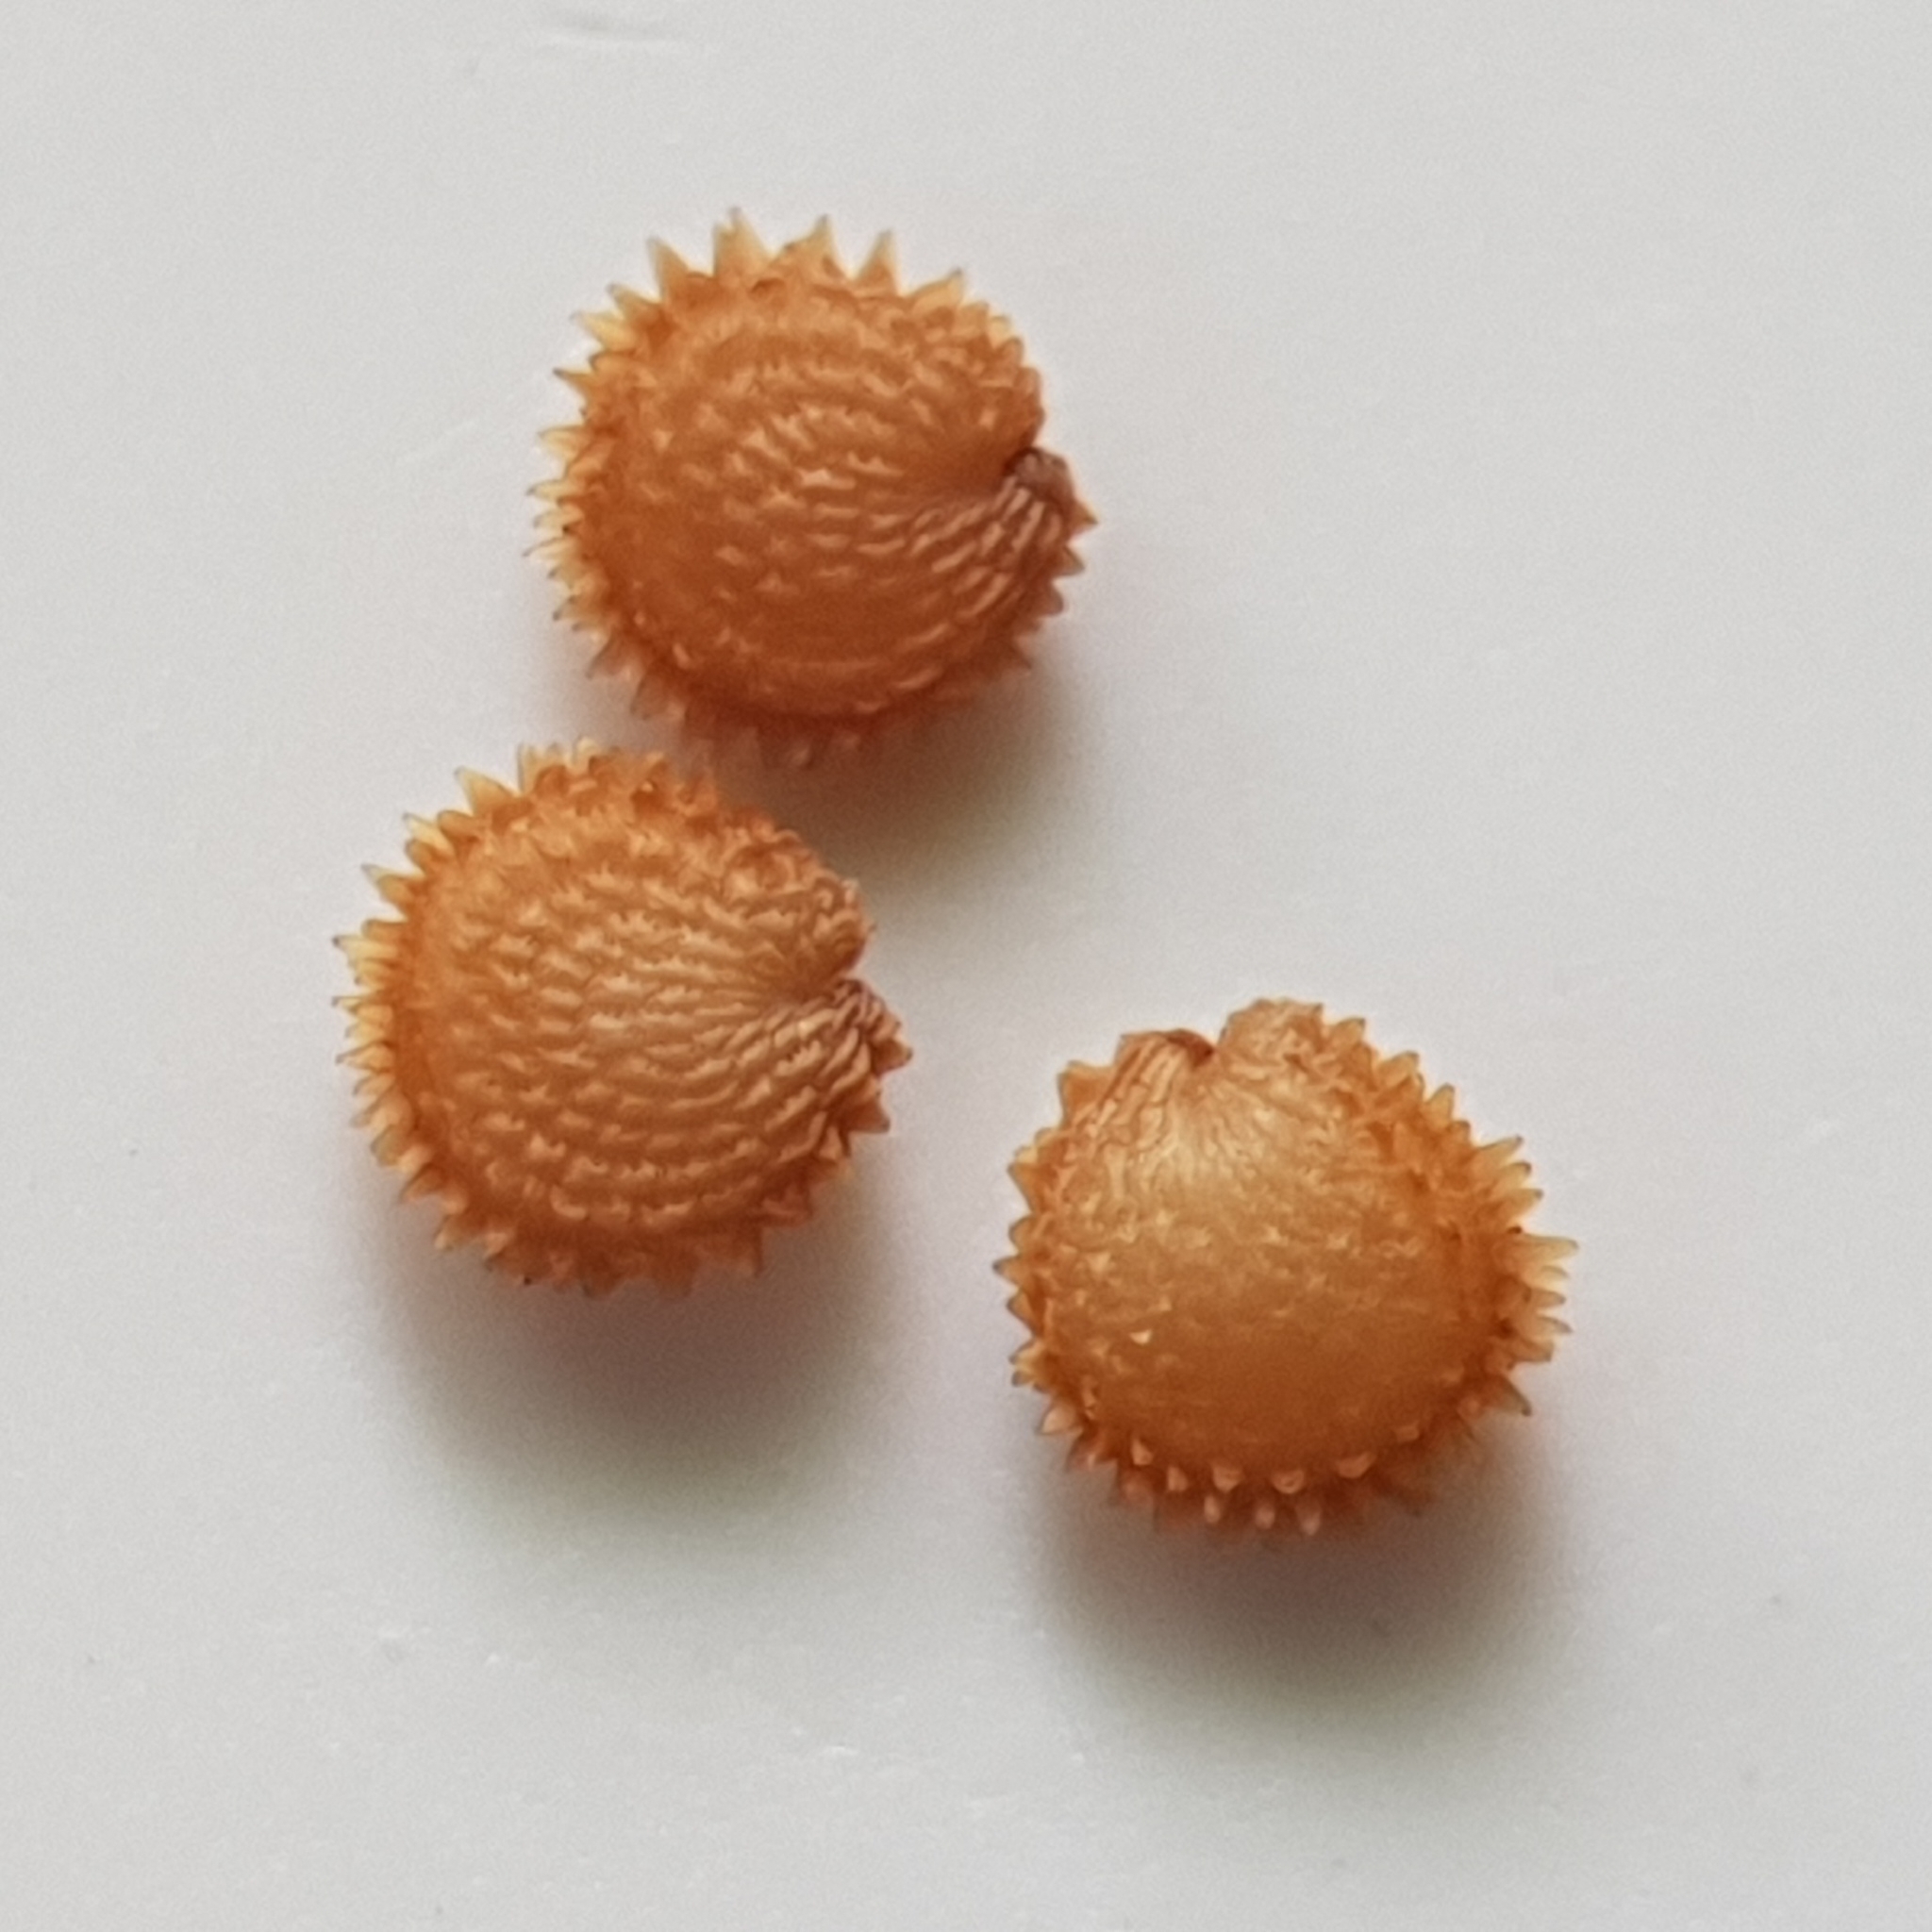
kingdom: Plantae
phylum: Tracheophyta
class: Magnoliopsida
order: Caryophyllales
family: Caryophyllaceae
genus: Stellaria
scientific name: Stellaria ruderalis
